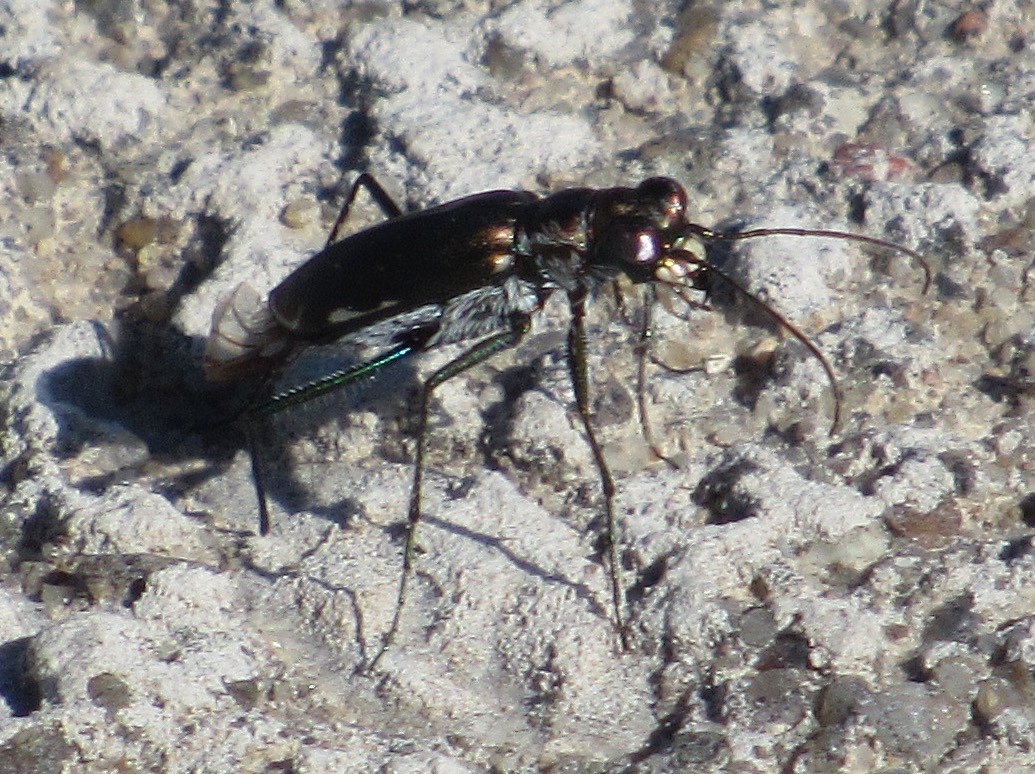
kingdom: Animalia
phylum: Arthropoda
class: Insecta
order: Coleoptera
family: Carabidae
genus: Cicindela
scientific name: Cicindela punctulata
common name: Punctured tiger beetle
